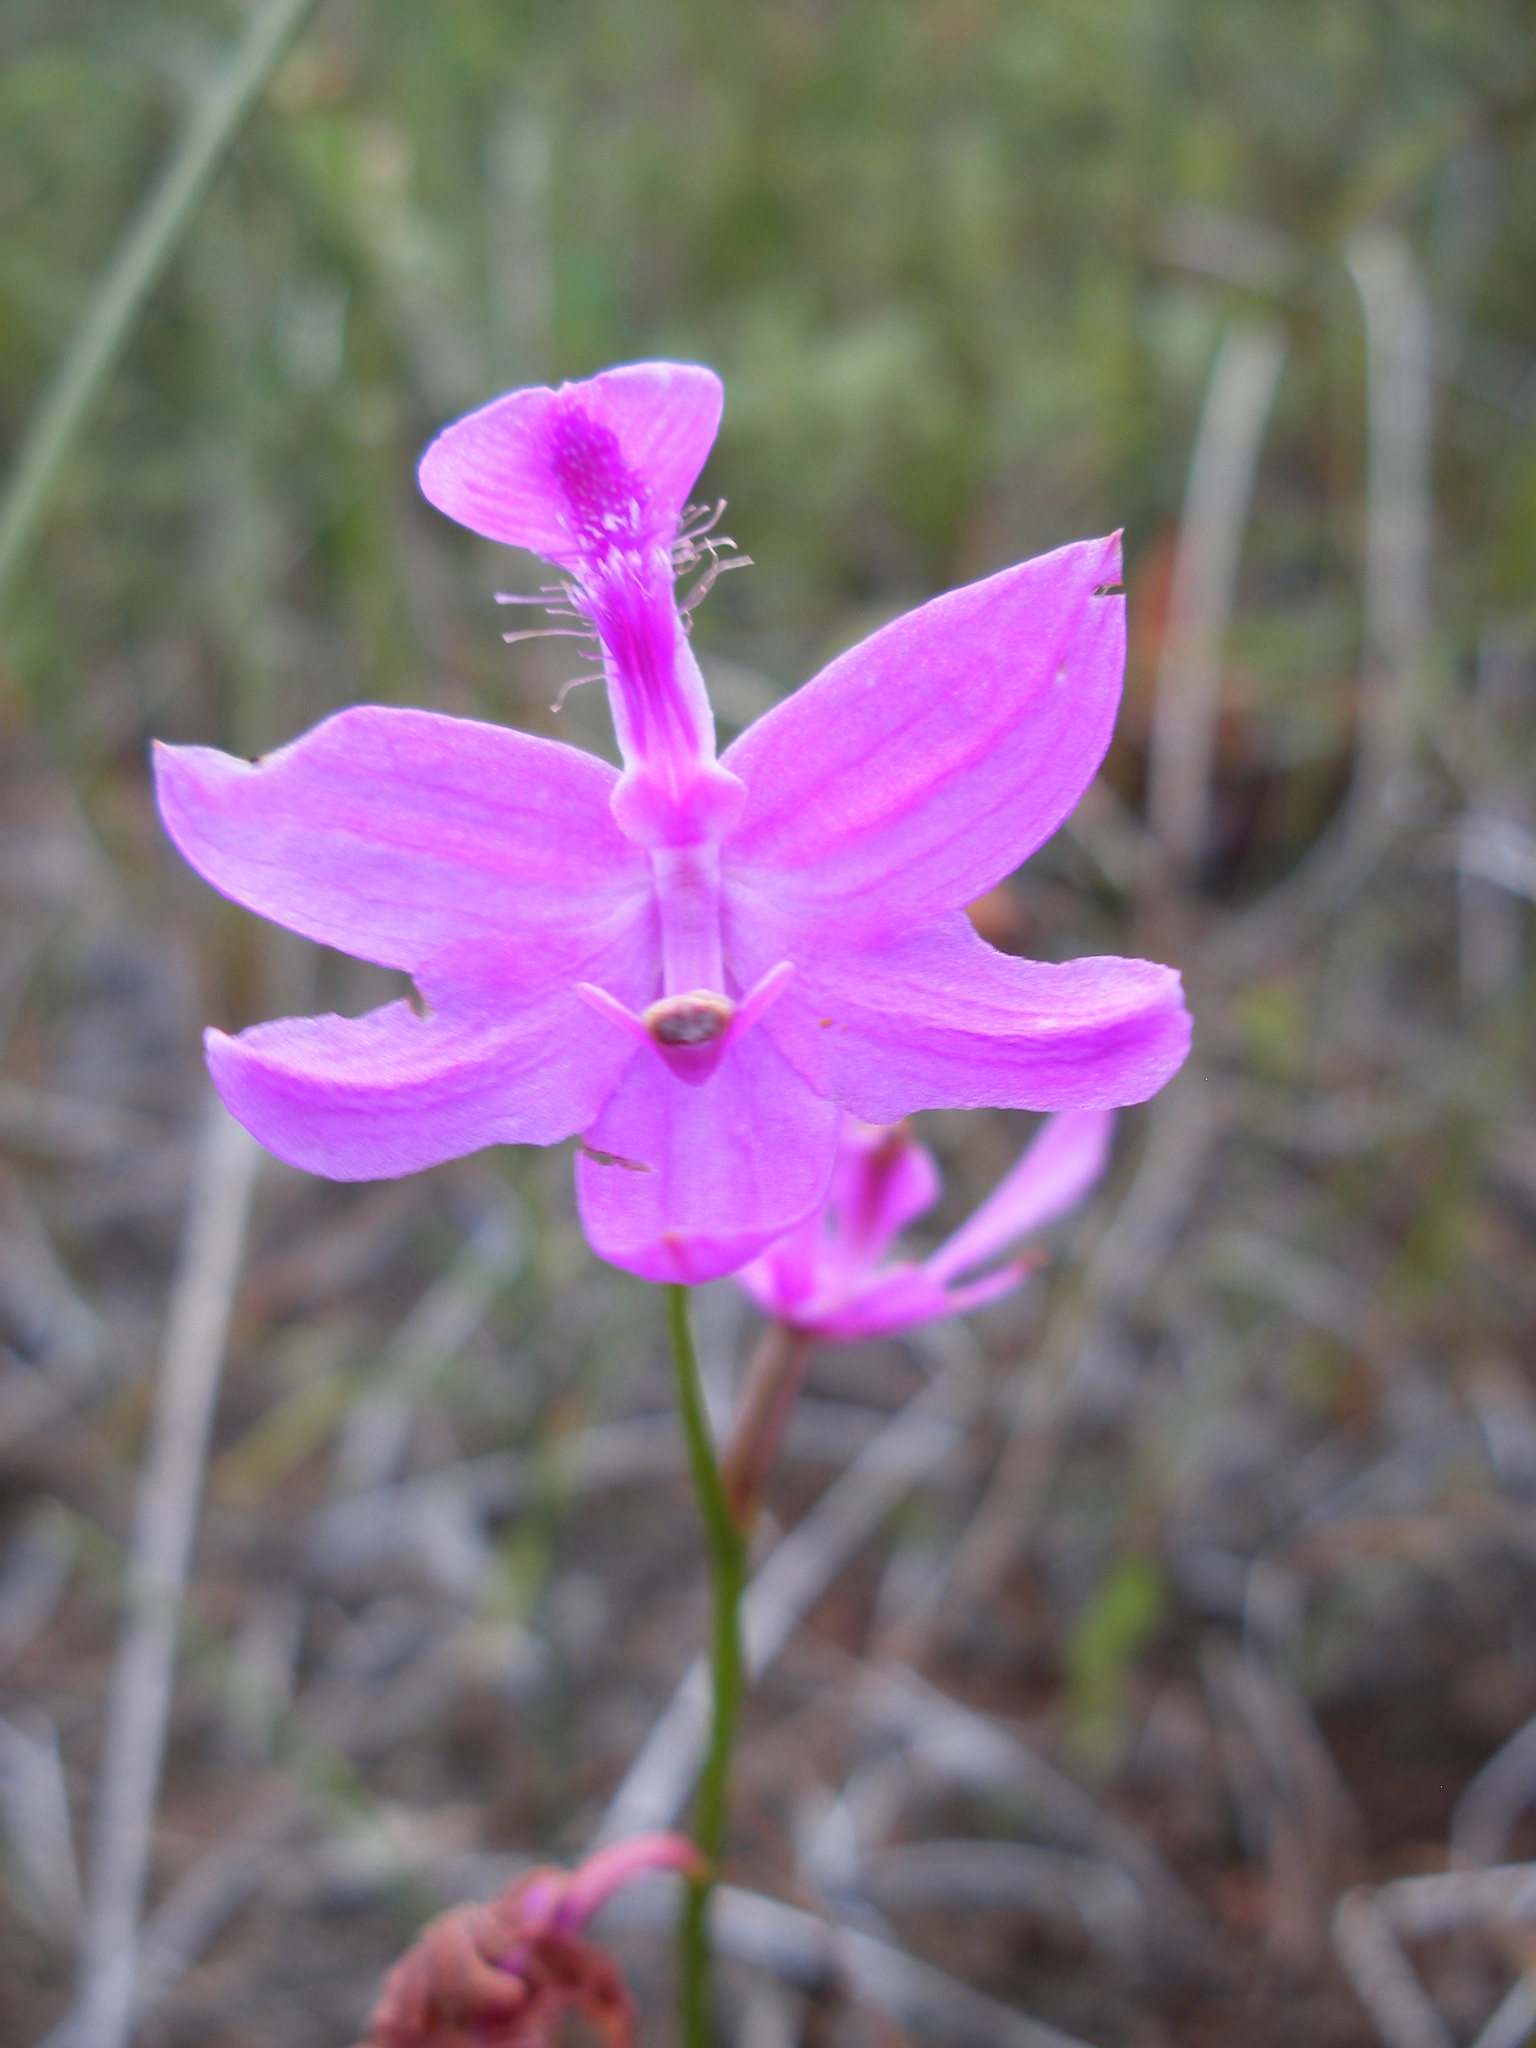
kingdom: Plantae
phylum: Tracheophyta
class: Liliopsida
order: Asparagales
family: Orchidaceae
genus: Calopogon
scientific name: Calopogon tuberosus
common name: Grass-pink
